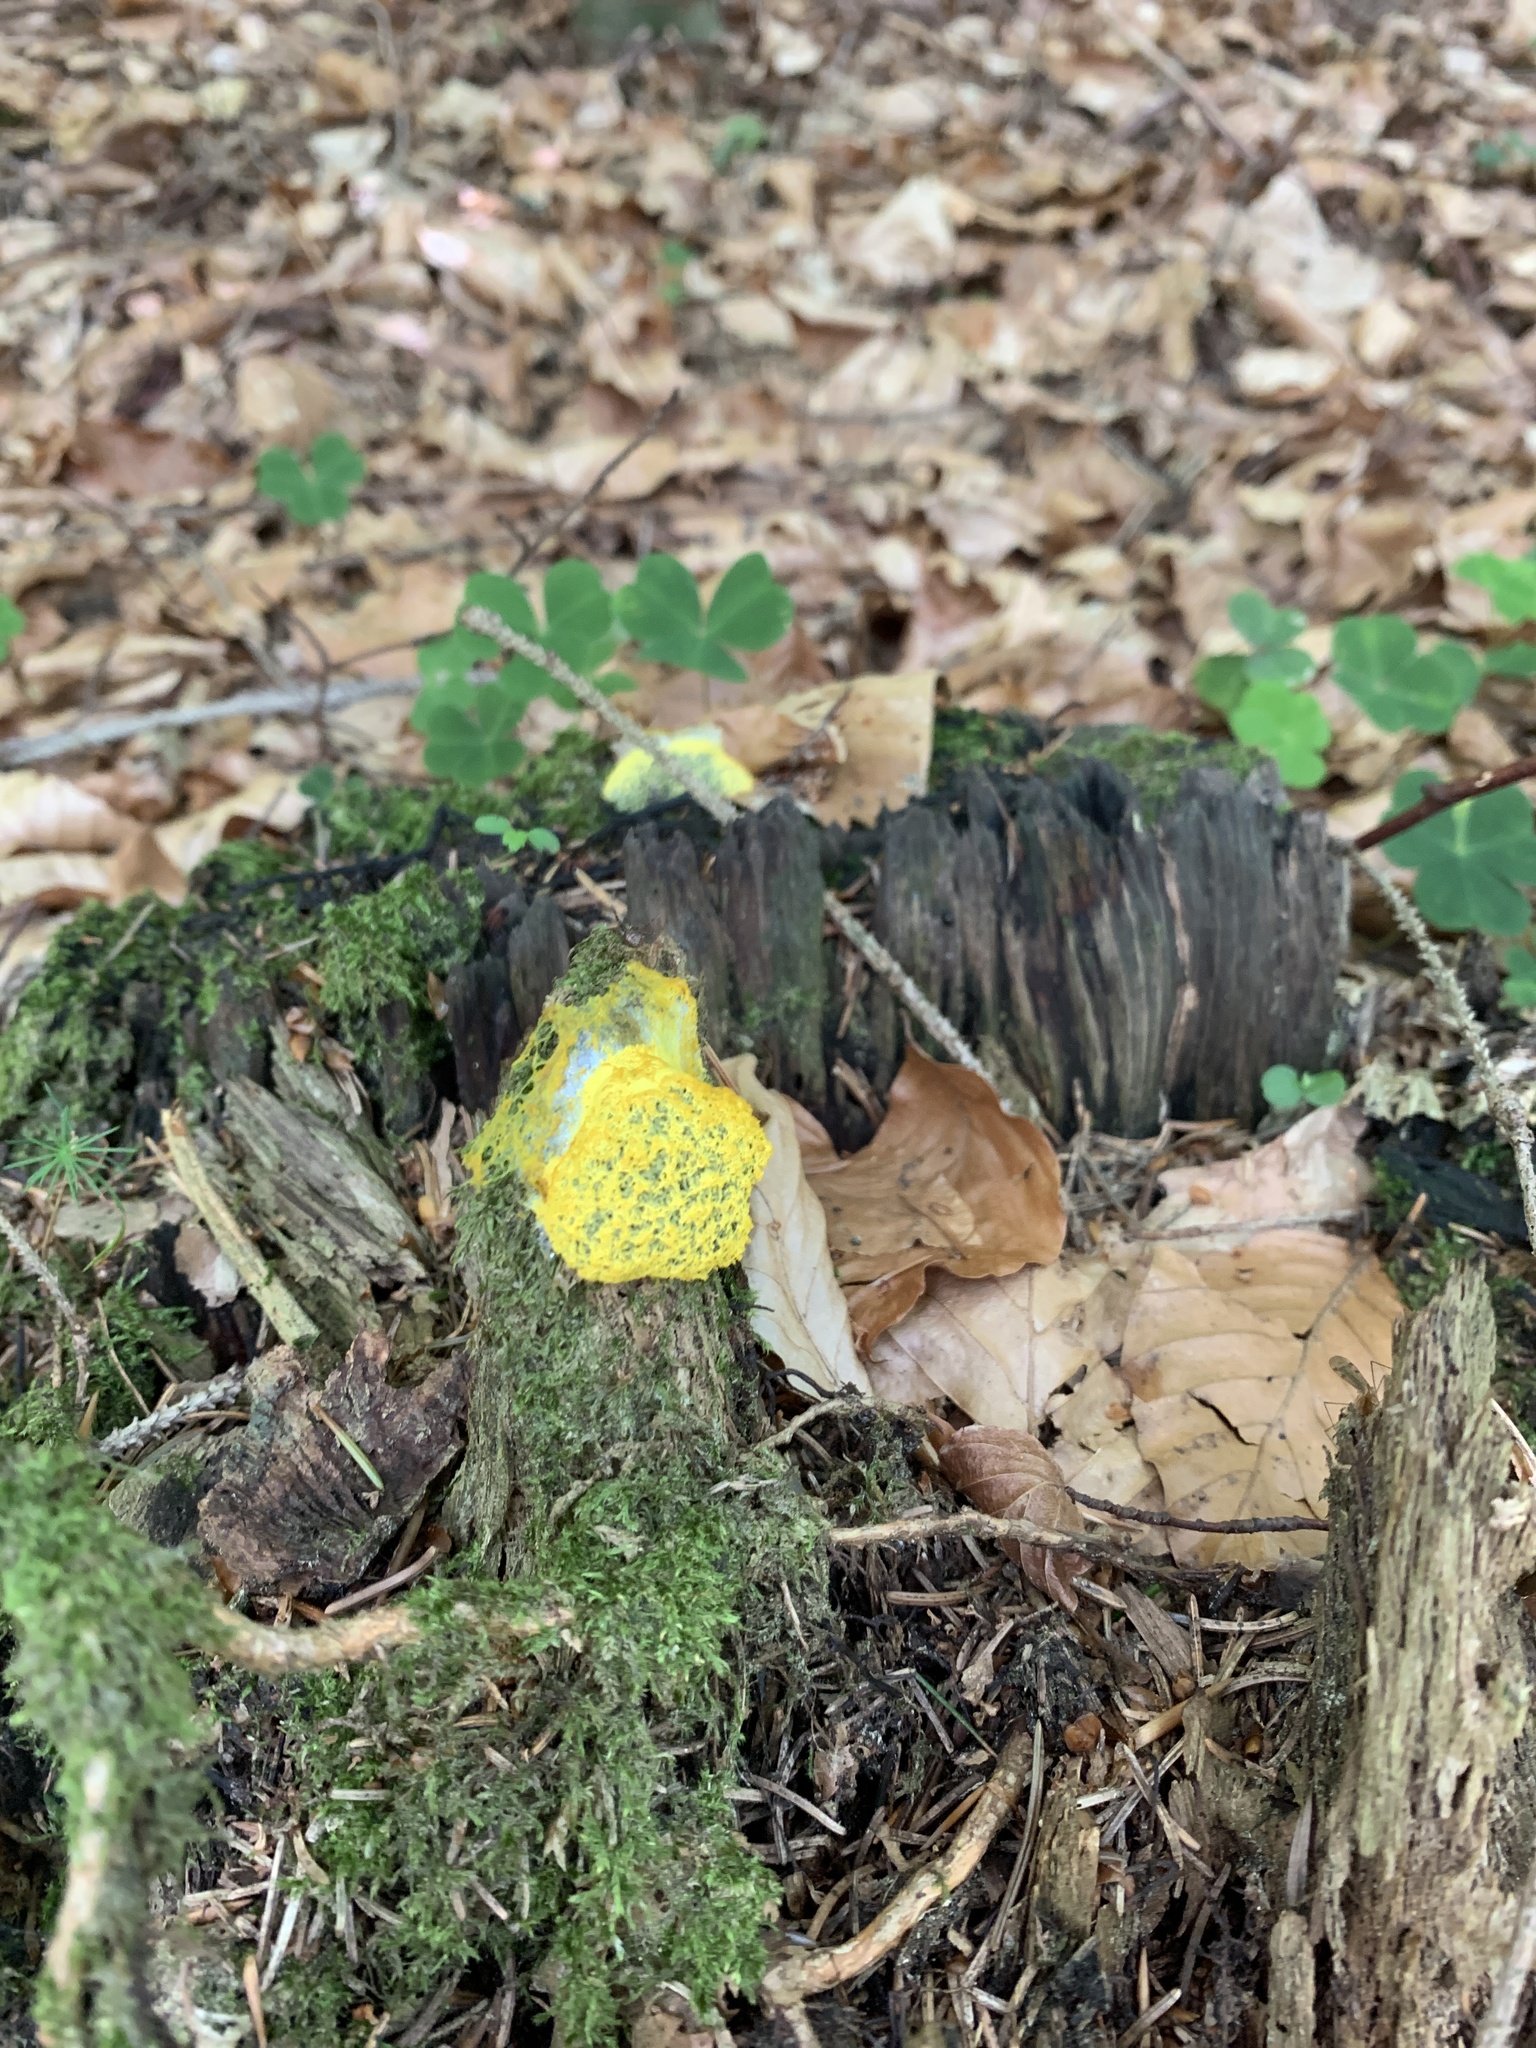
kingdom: Protozoa
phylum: Mycetozoa
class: Myxomycetes
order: Physarales
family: Physaraceae
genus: Fuligo
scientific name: Fuligo septica
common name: Dog vomit slime mold
